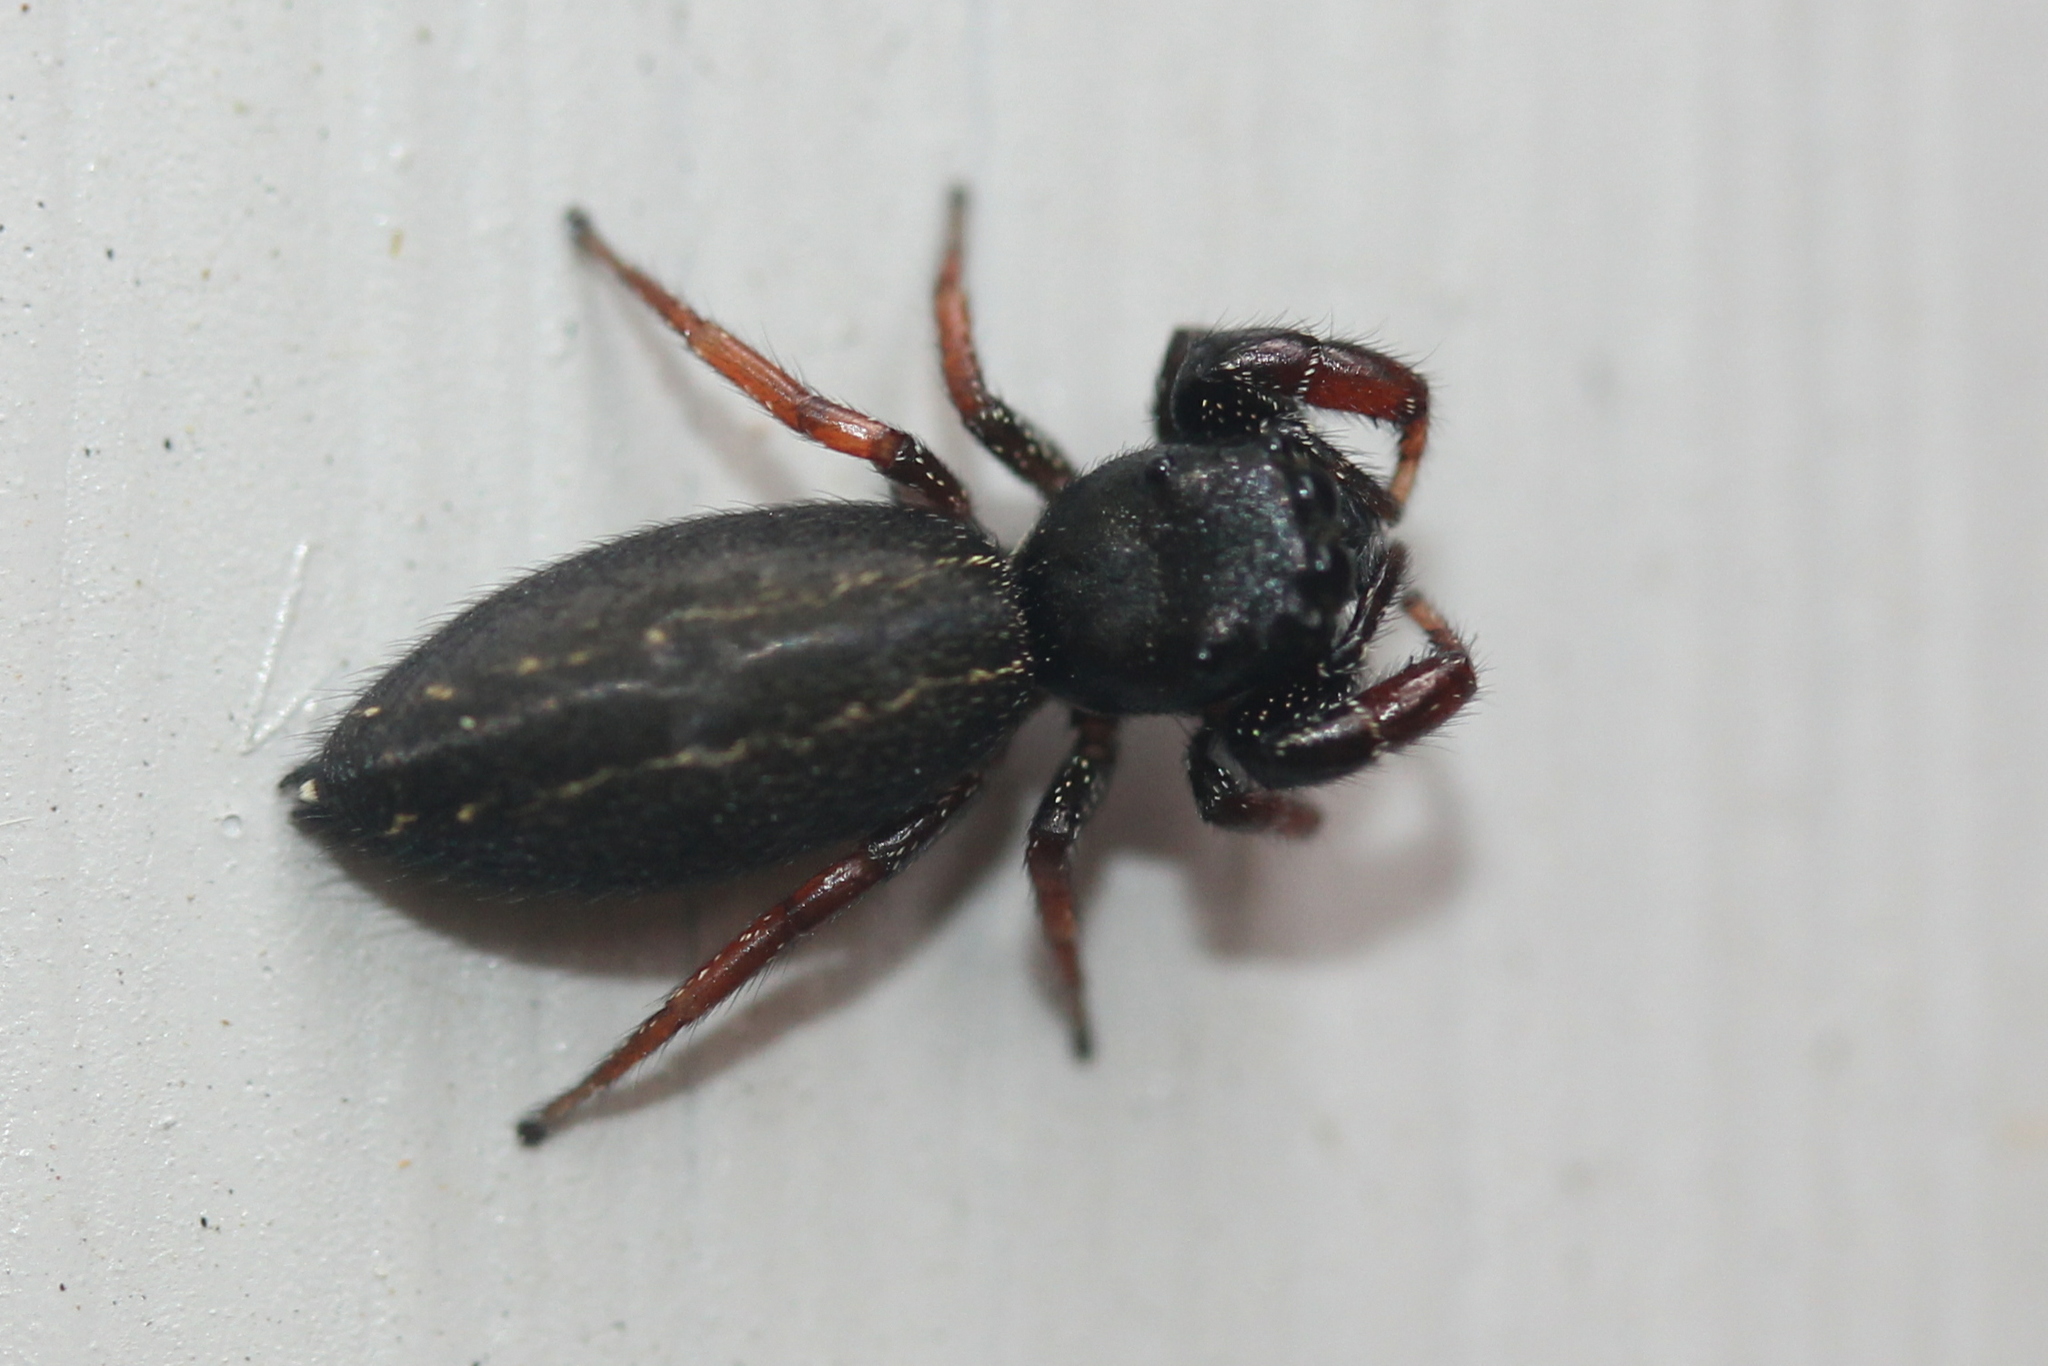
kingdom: Animalia
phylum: Arthropoda
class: Arachnida
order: Araneae
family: Salticidae
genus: Metacyrba
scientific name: Metacyrba taeniola
